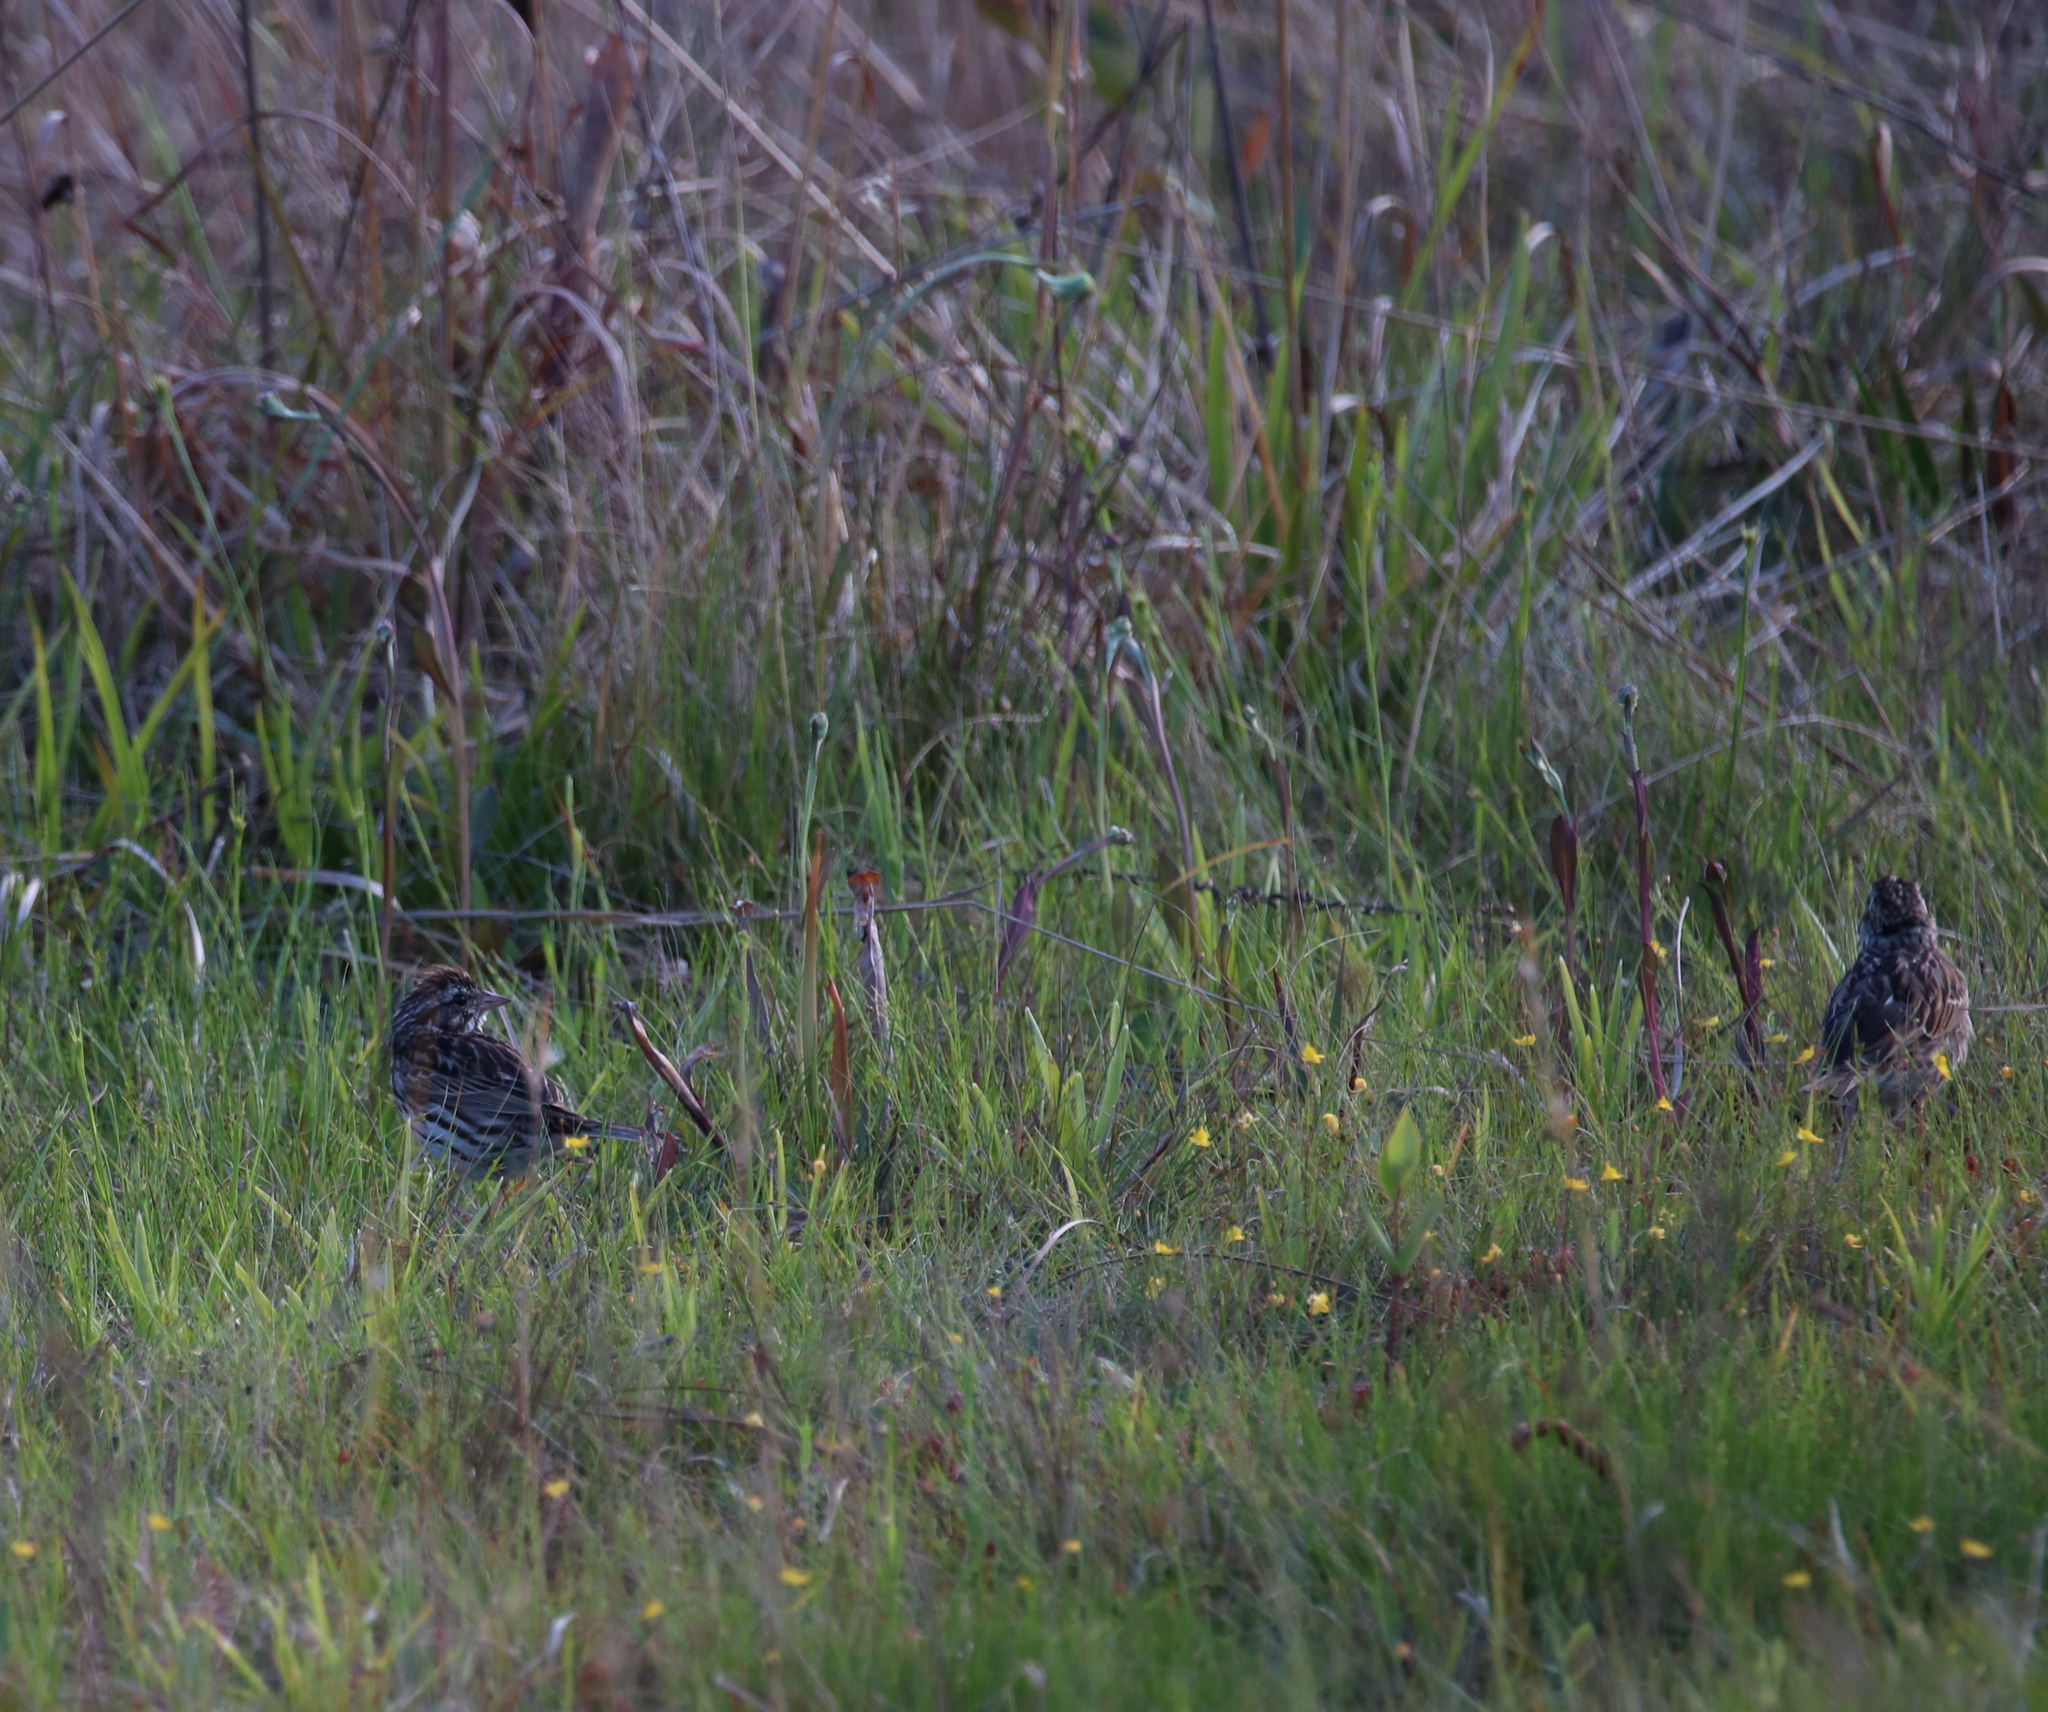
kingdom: Animalia
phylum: Chordata
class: Aves
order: Passeriformes
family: Passerellidae
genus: Passerculus
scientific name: Passerculus sandwichensis
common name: Savannah sparrow
